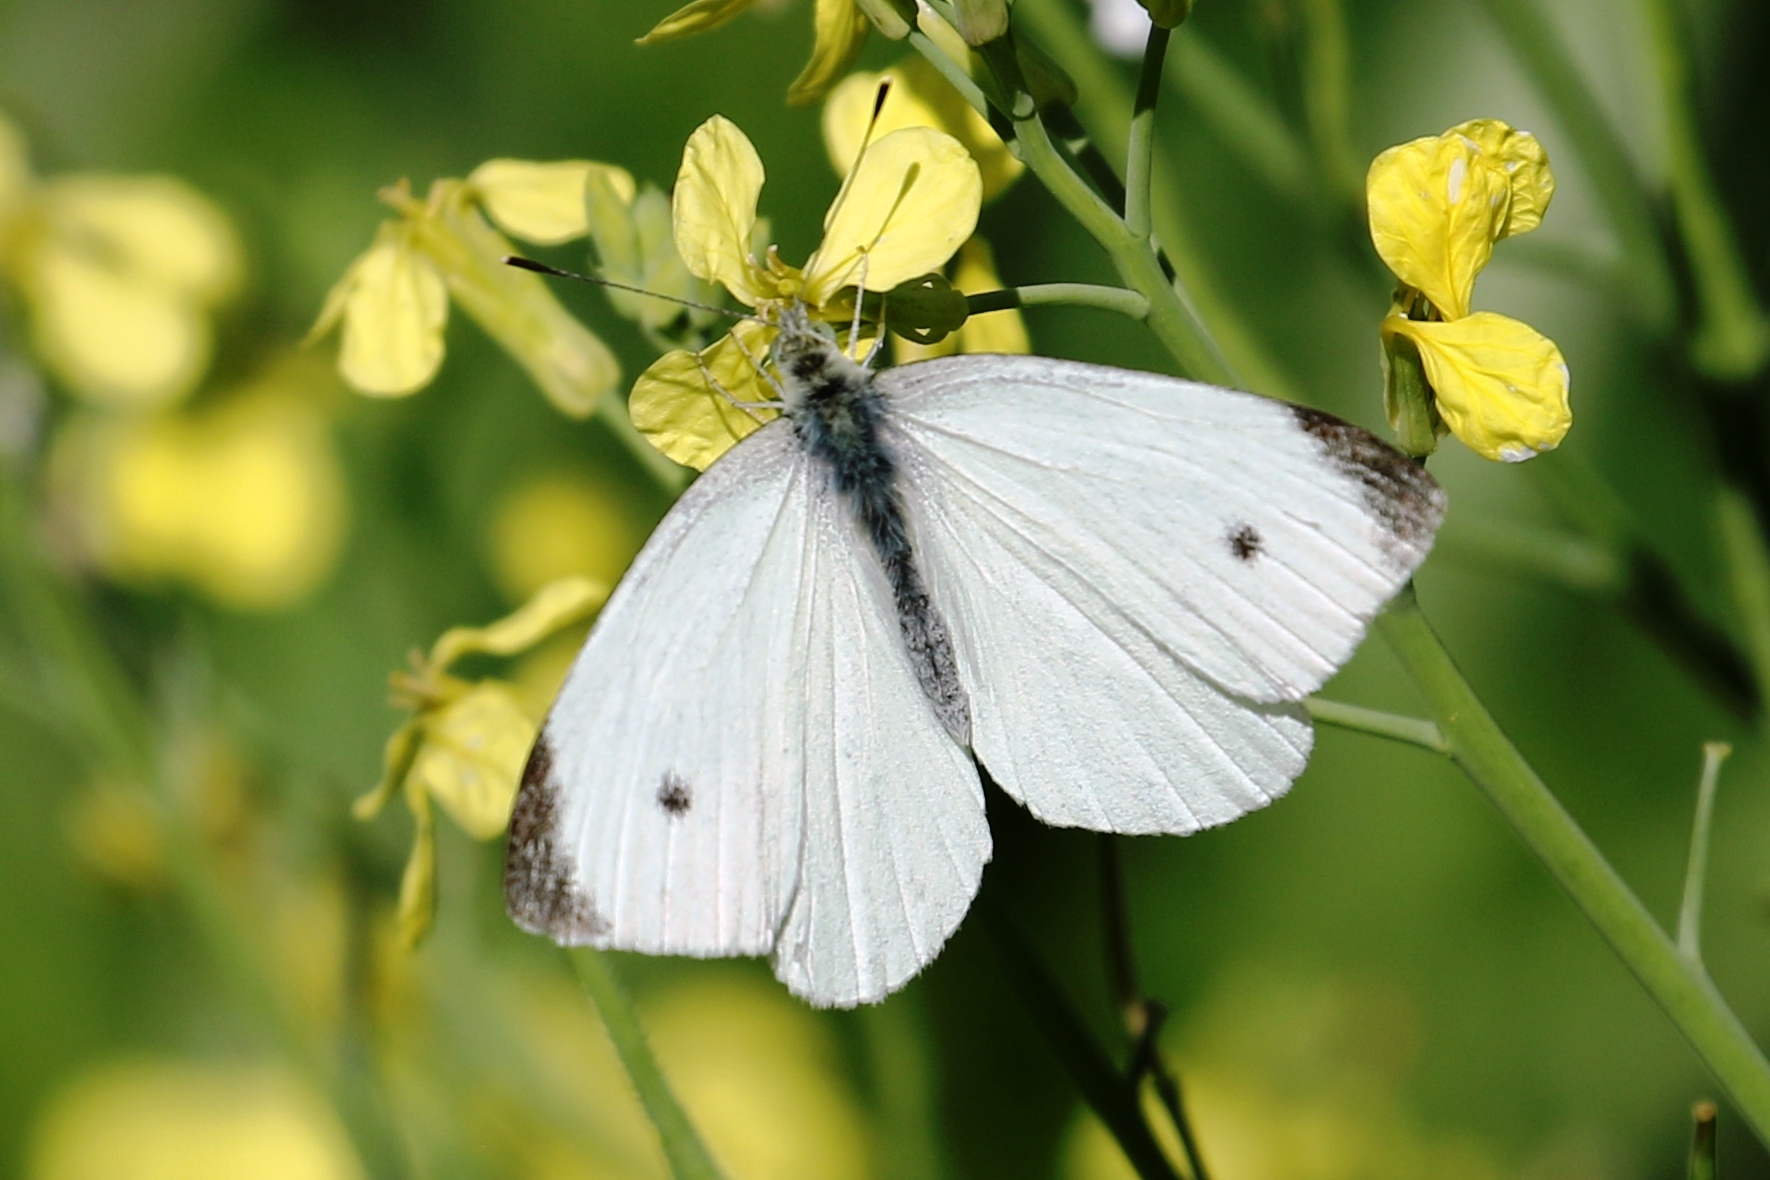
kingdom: Animalia
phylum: Arthropoda
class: Insecta
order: Lepidoptera
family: Pieridae
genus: Pieris
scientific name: Pieris rapae
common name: Small white
